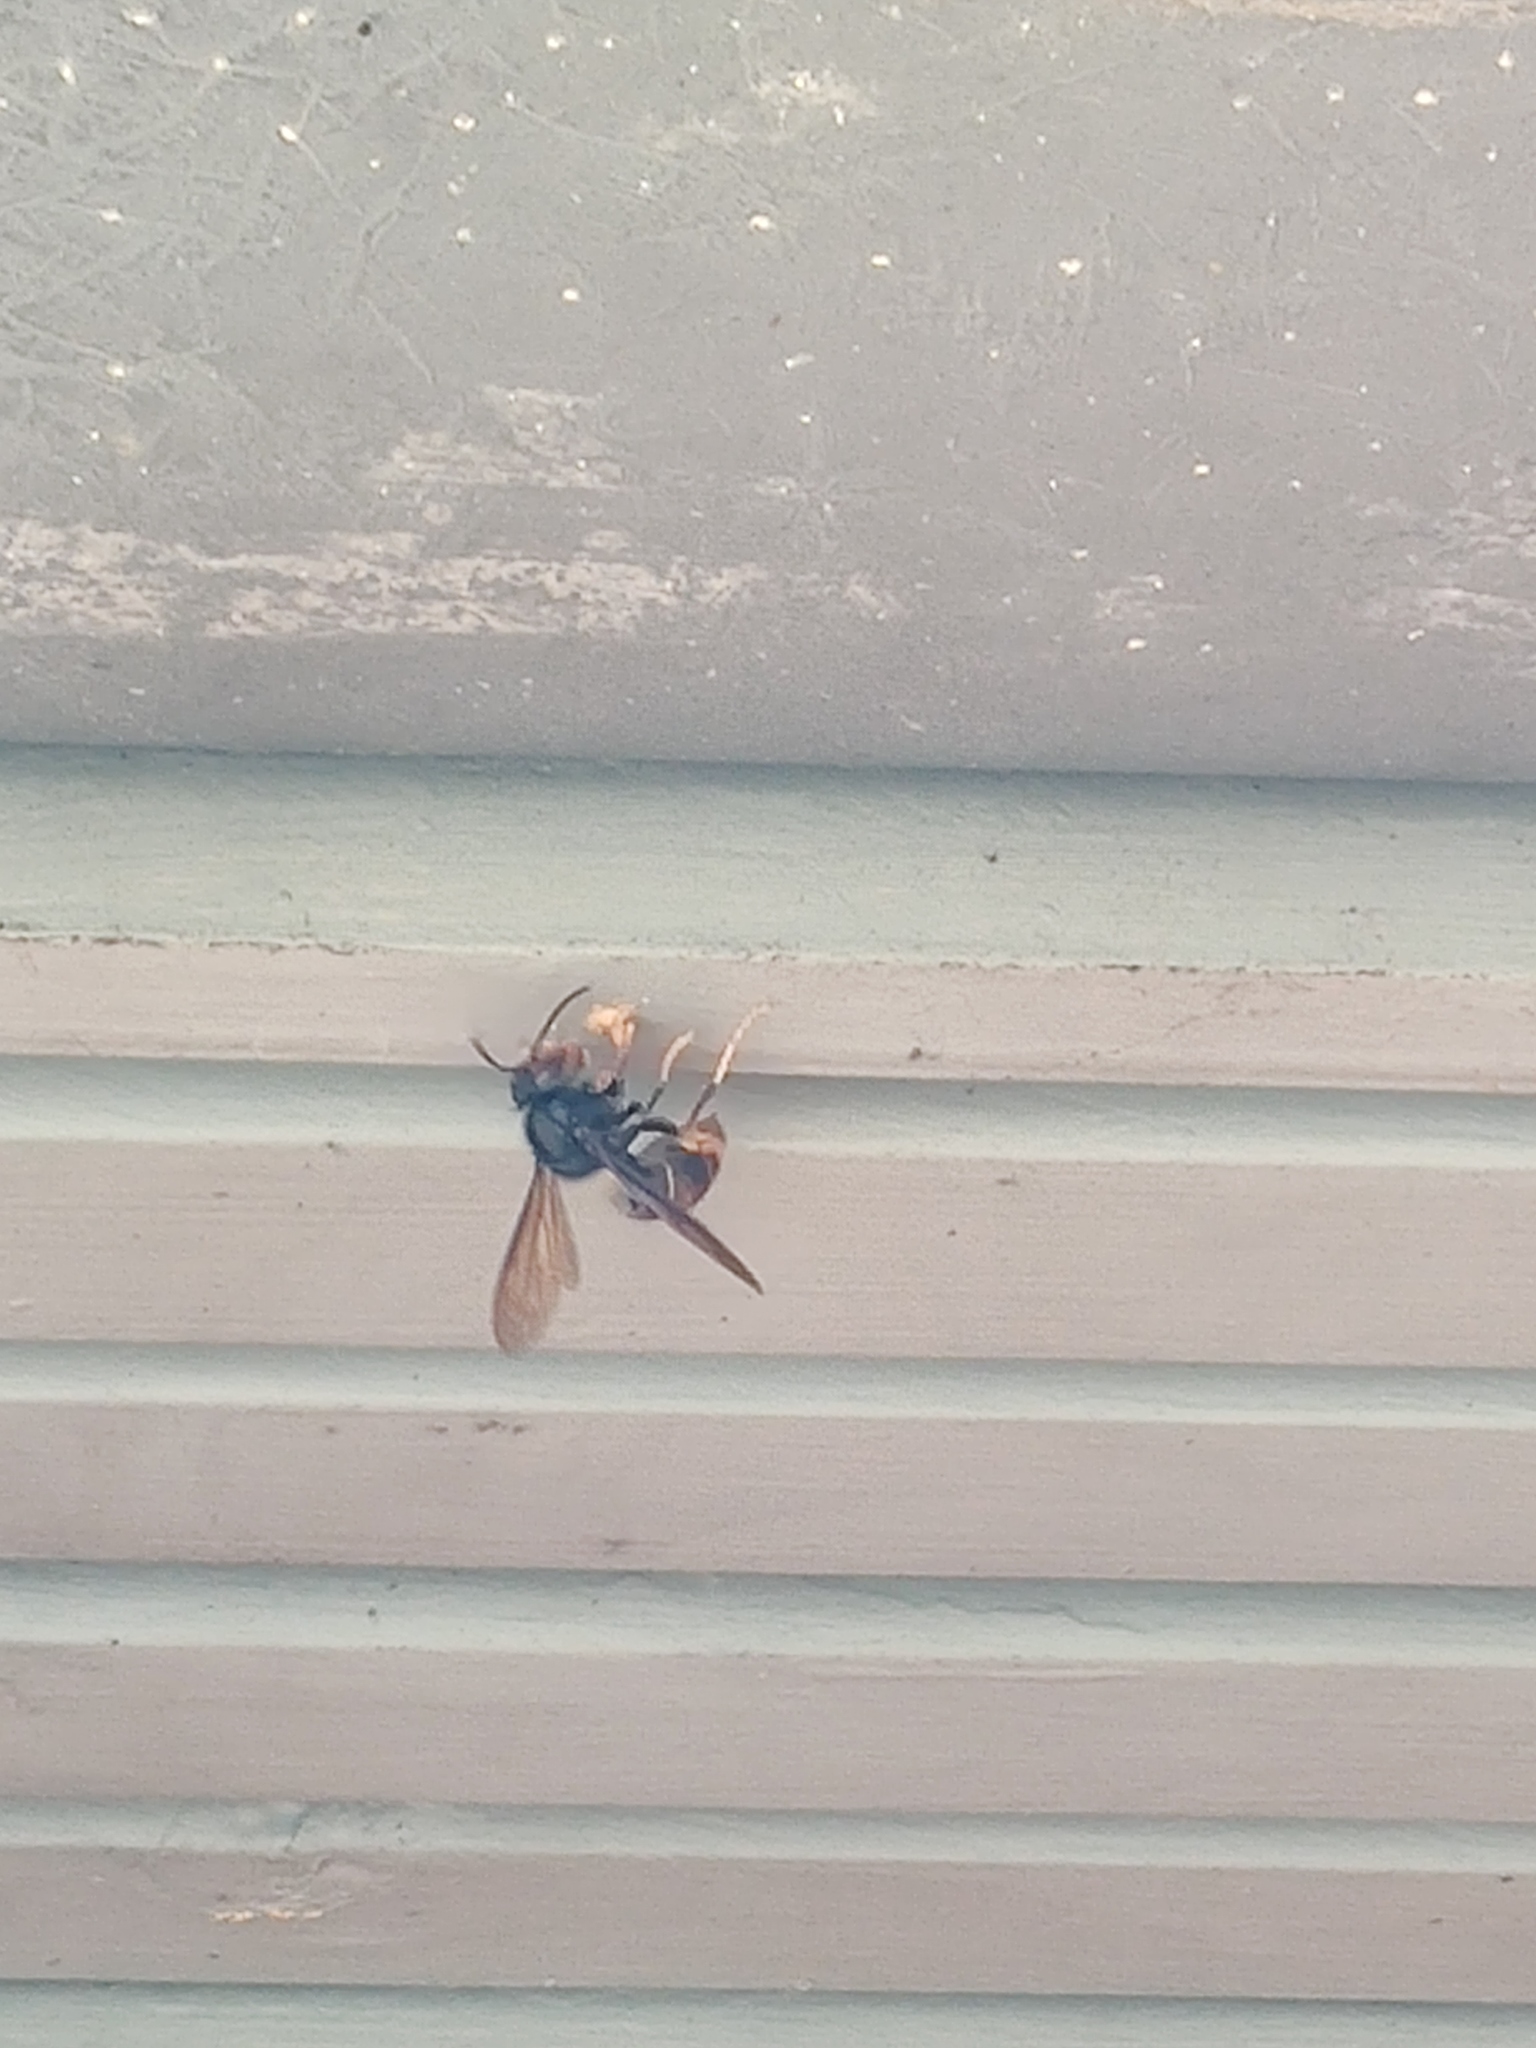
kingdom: Animalia
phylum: Arthropoda
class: Insecta
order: Hymenoptera
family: Vespidae
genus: Vespa
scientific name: Vespa velutina
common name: Asian hornet
